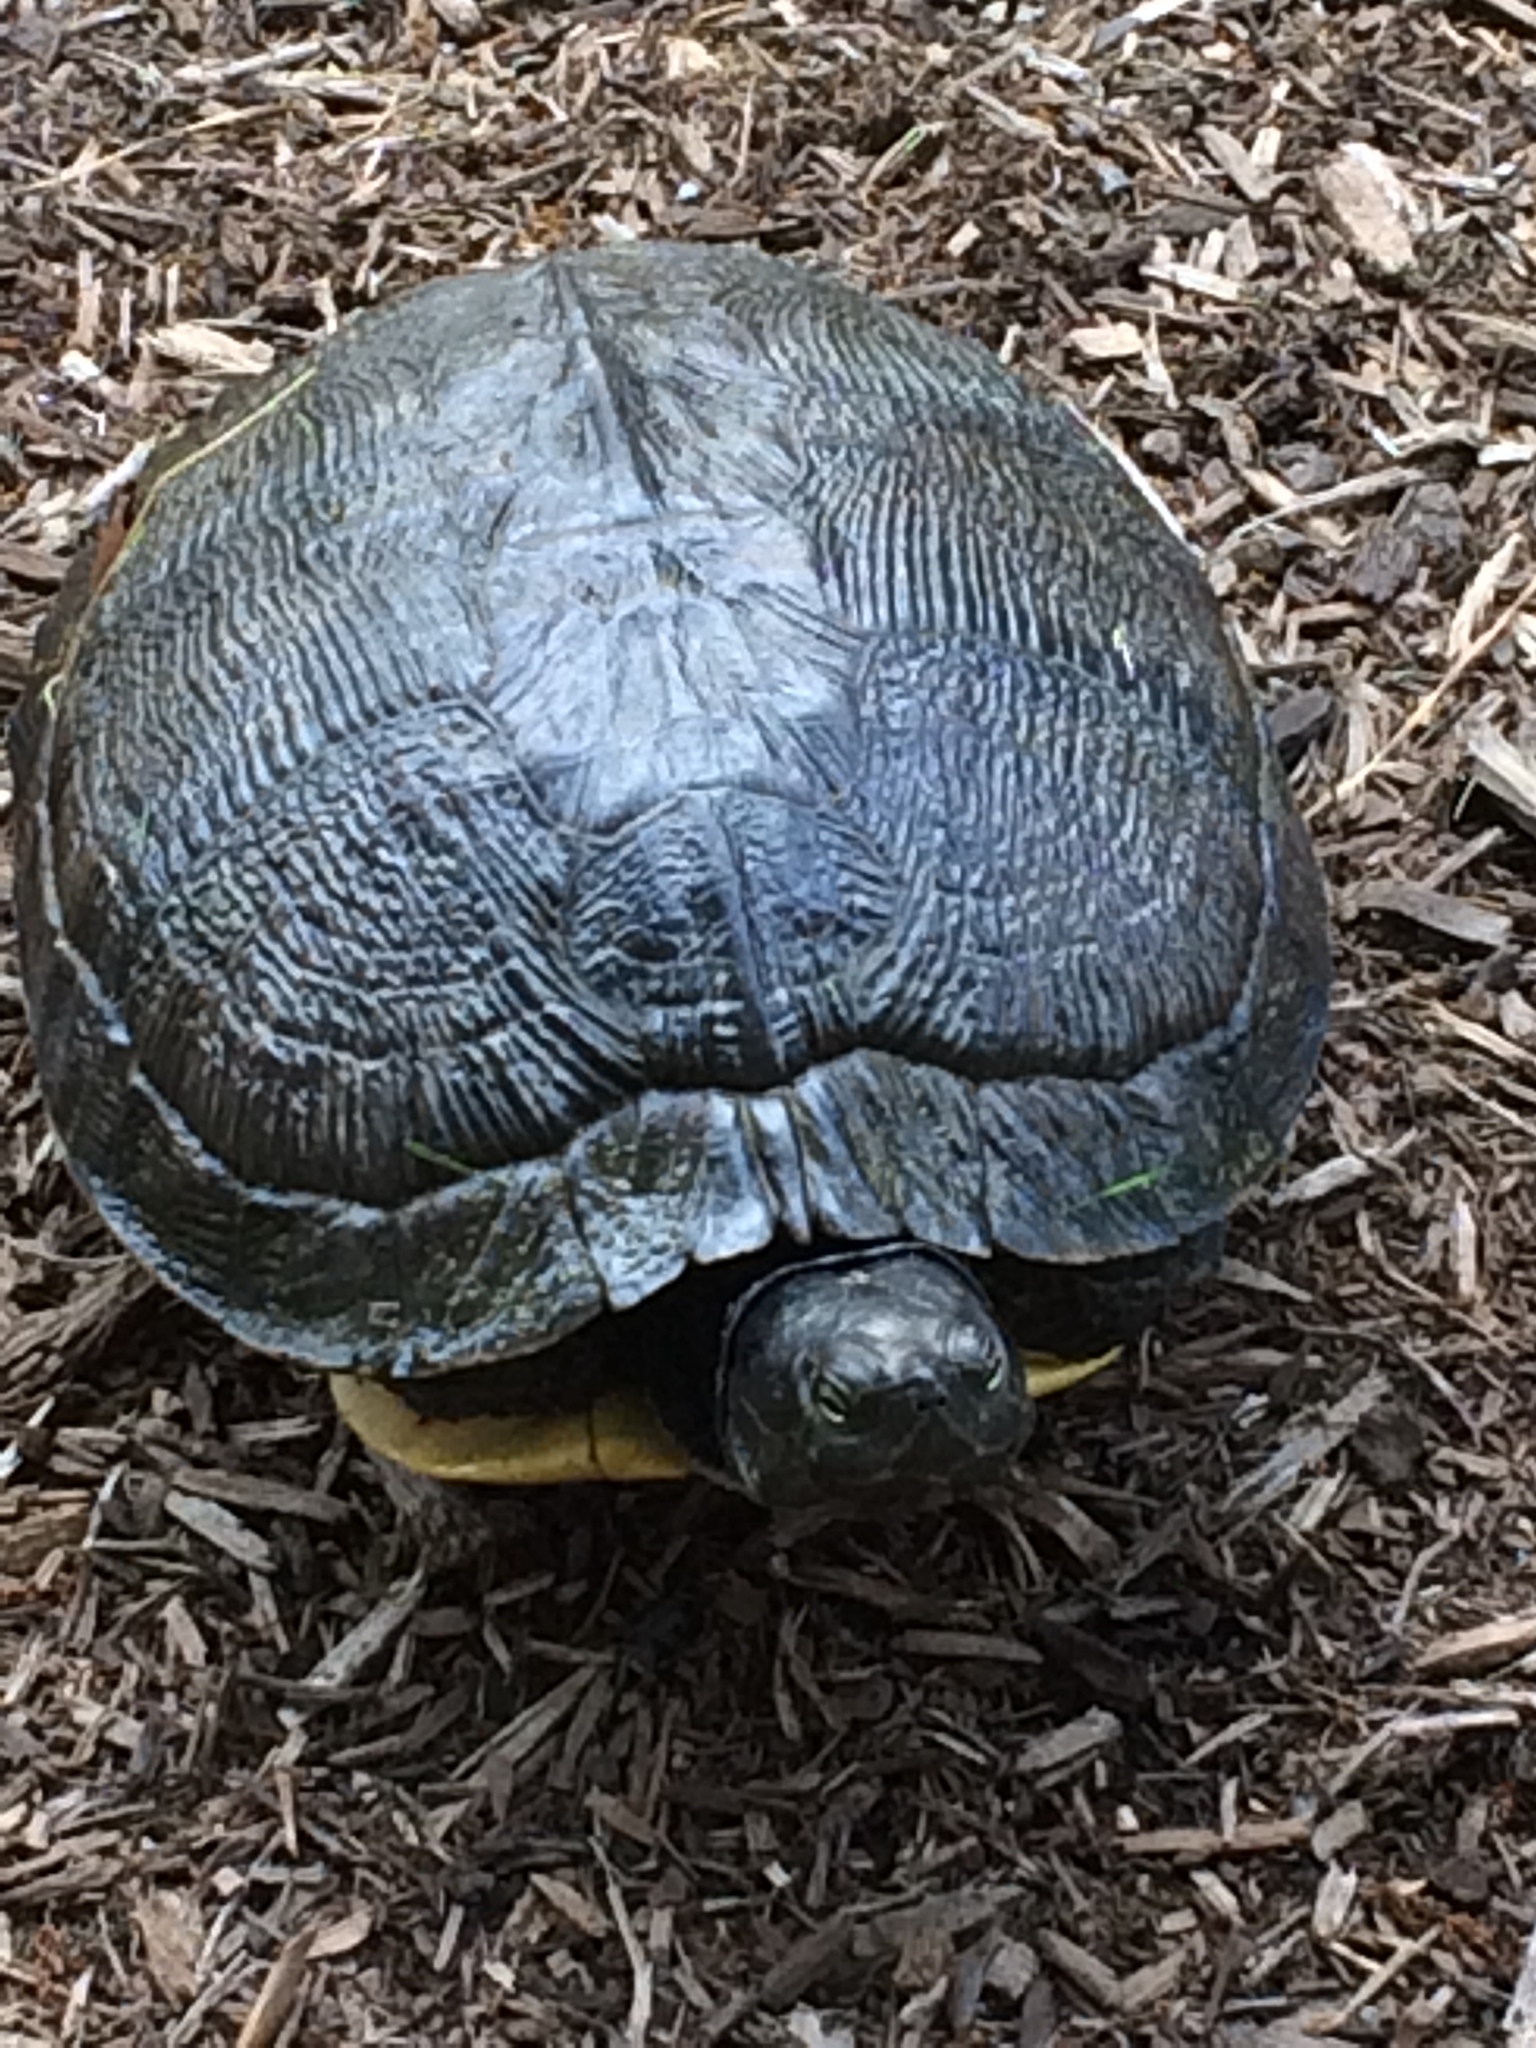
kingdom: Animalia
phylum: Chordata
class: Testudines
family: Emydidae
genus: Trachemys
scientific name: Trachemys scripta
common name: Slider
